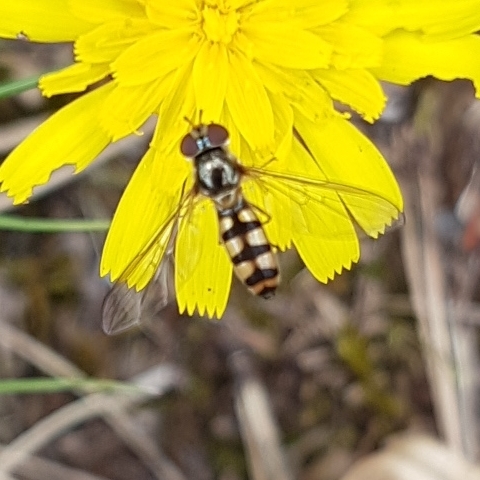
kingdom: Animalia
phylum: Arthropoda
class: Insecta
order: Diptera
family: Syrphidae
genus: Meliscaeva
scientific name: Meliscaeva auricollis
